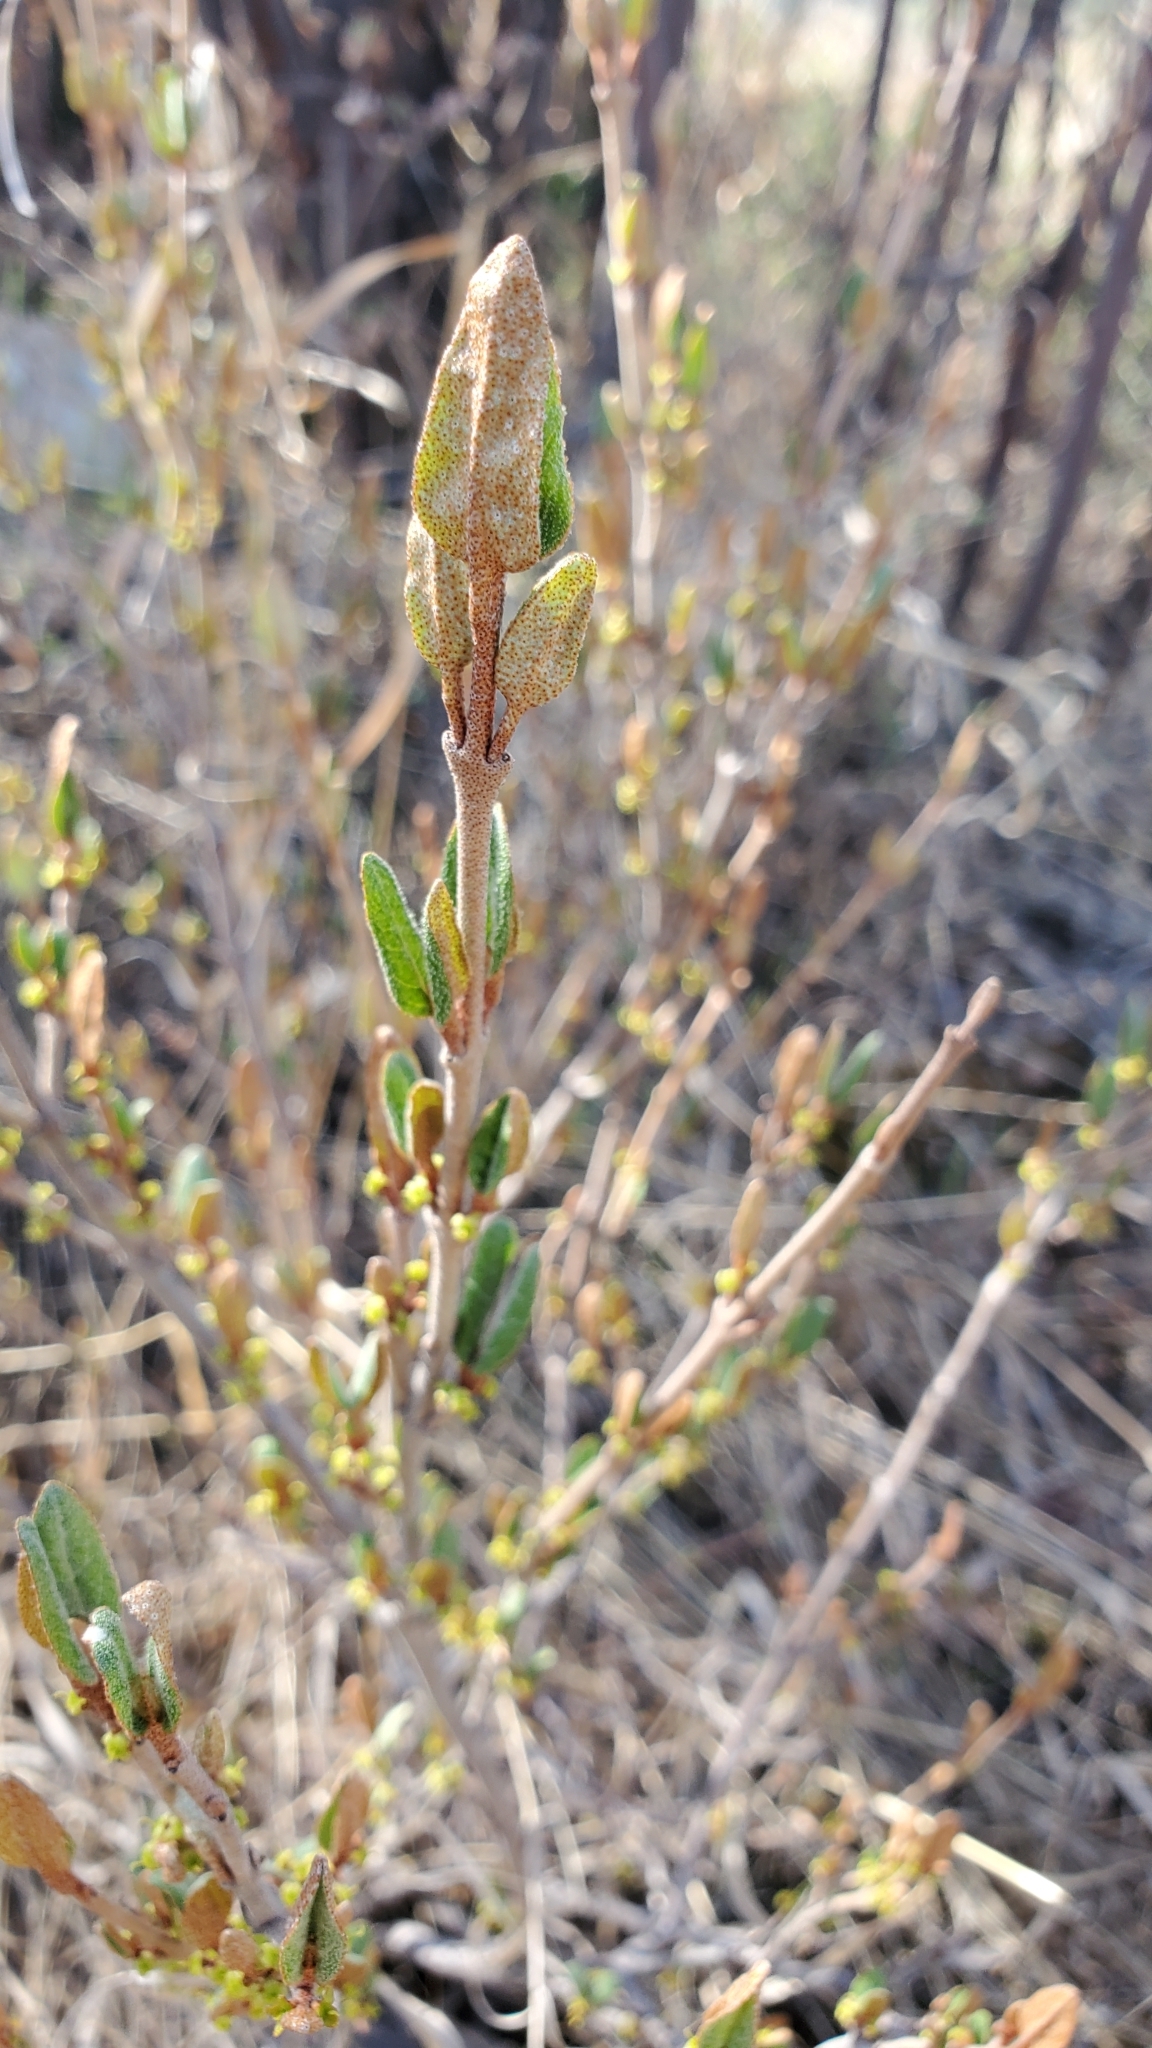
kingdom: Plantae
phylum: Tracheophyta
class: Magnoliopsida
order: Rosales
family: Elaeagnaceae
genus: Shepherdia
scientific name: Shepherdia canadensis
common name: Soapberry
